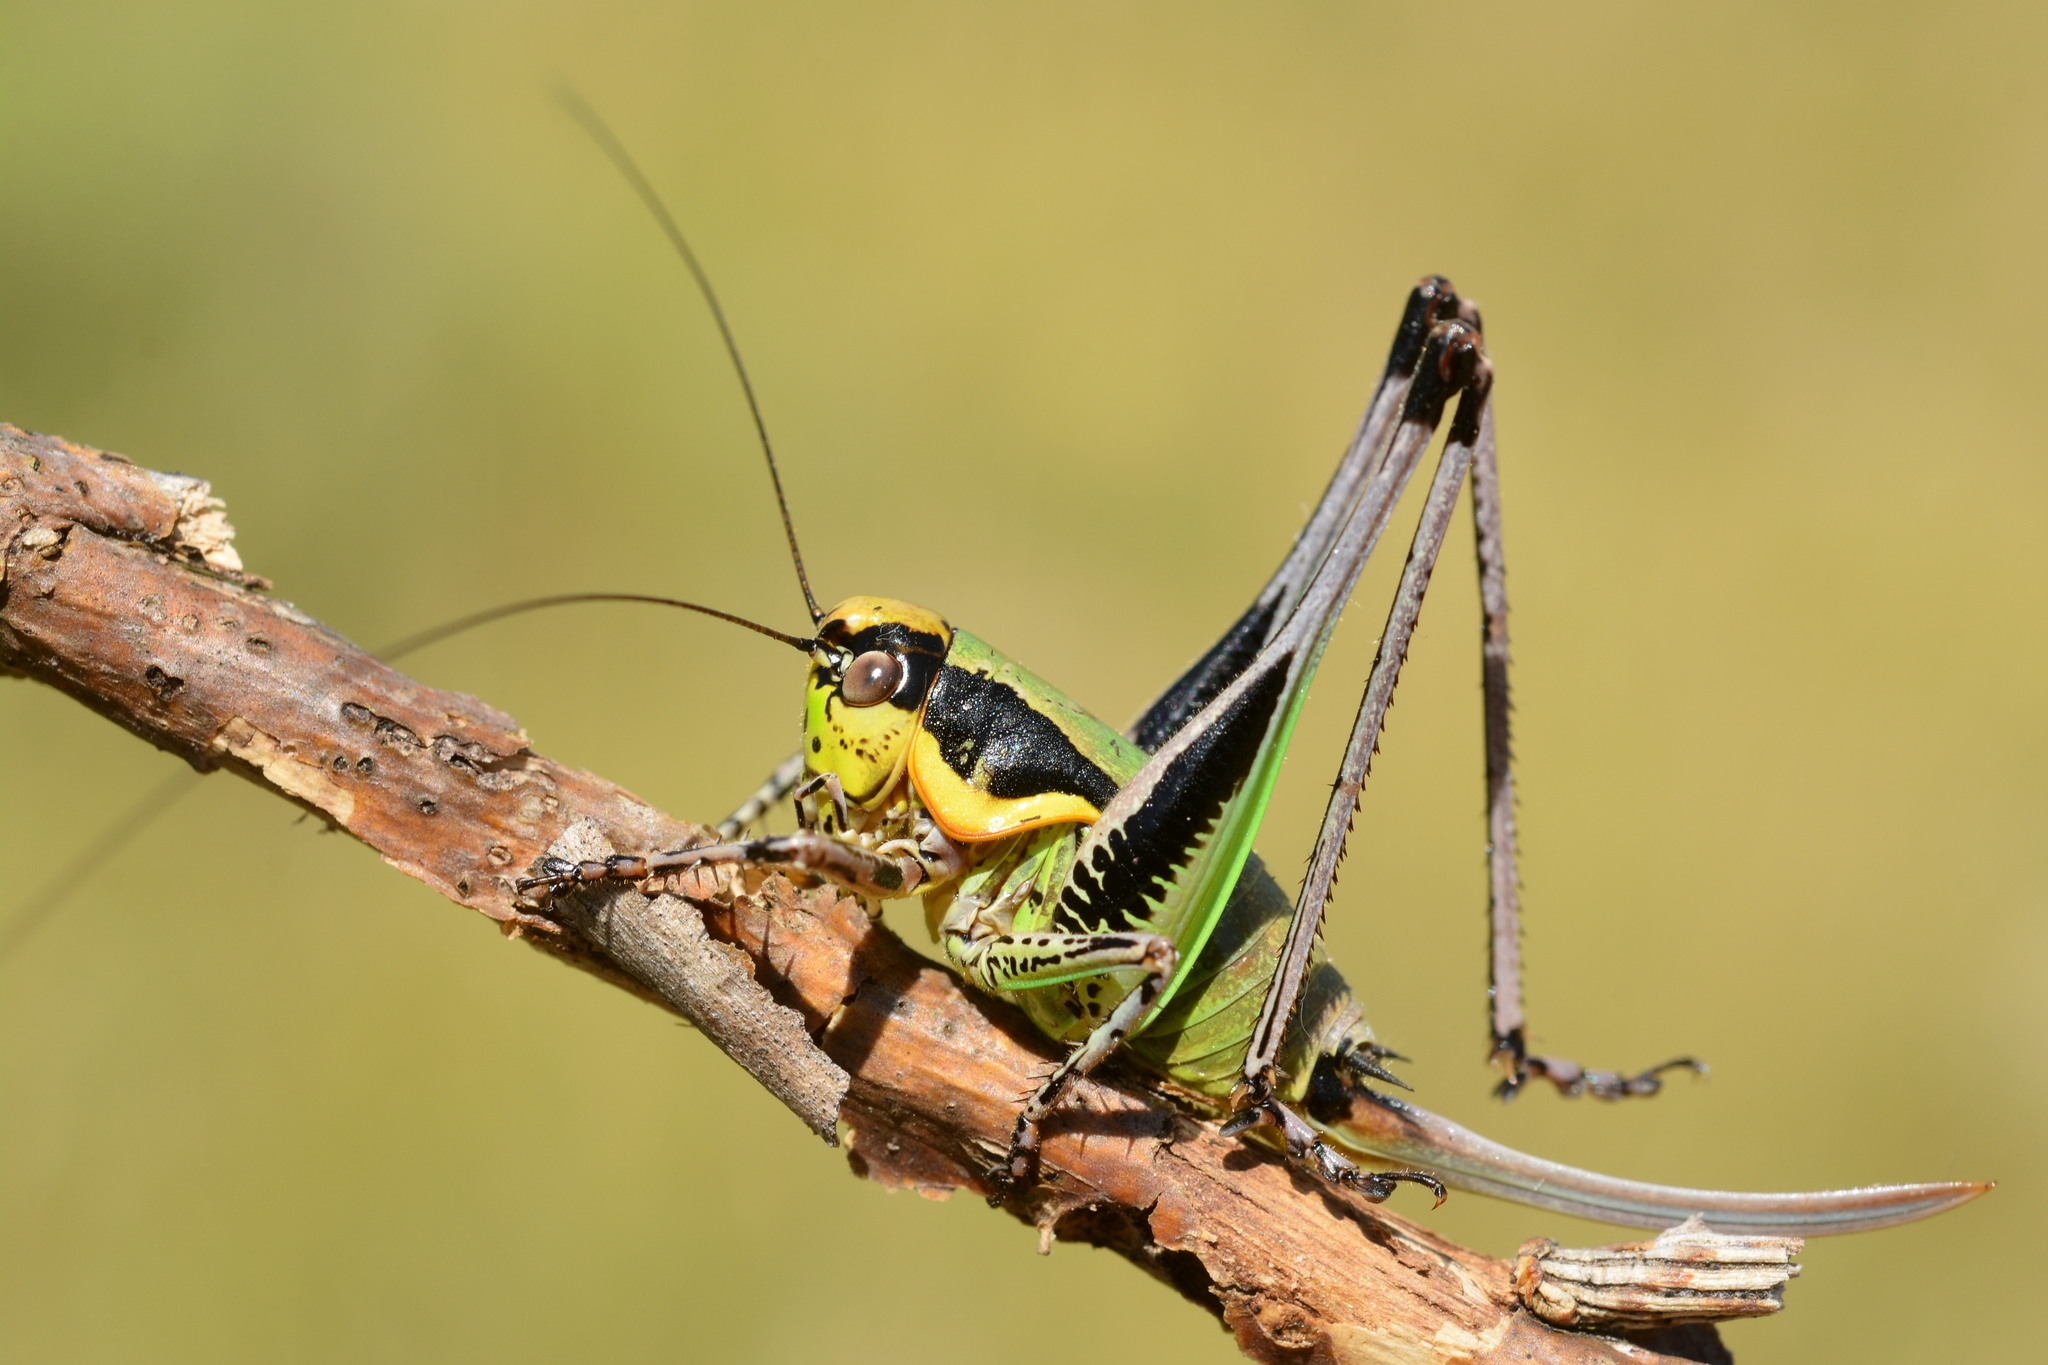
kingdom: Animalia
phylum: Arthropoda
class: Insecta
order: Orthoptera
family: Tettigoniidae
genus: Eupholidoptera
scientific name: Eupholidoptera chabrieri
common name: Chabrier's marbled bush-cricket
